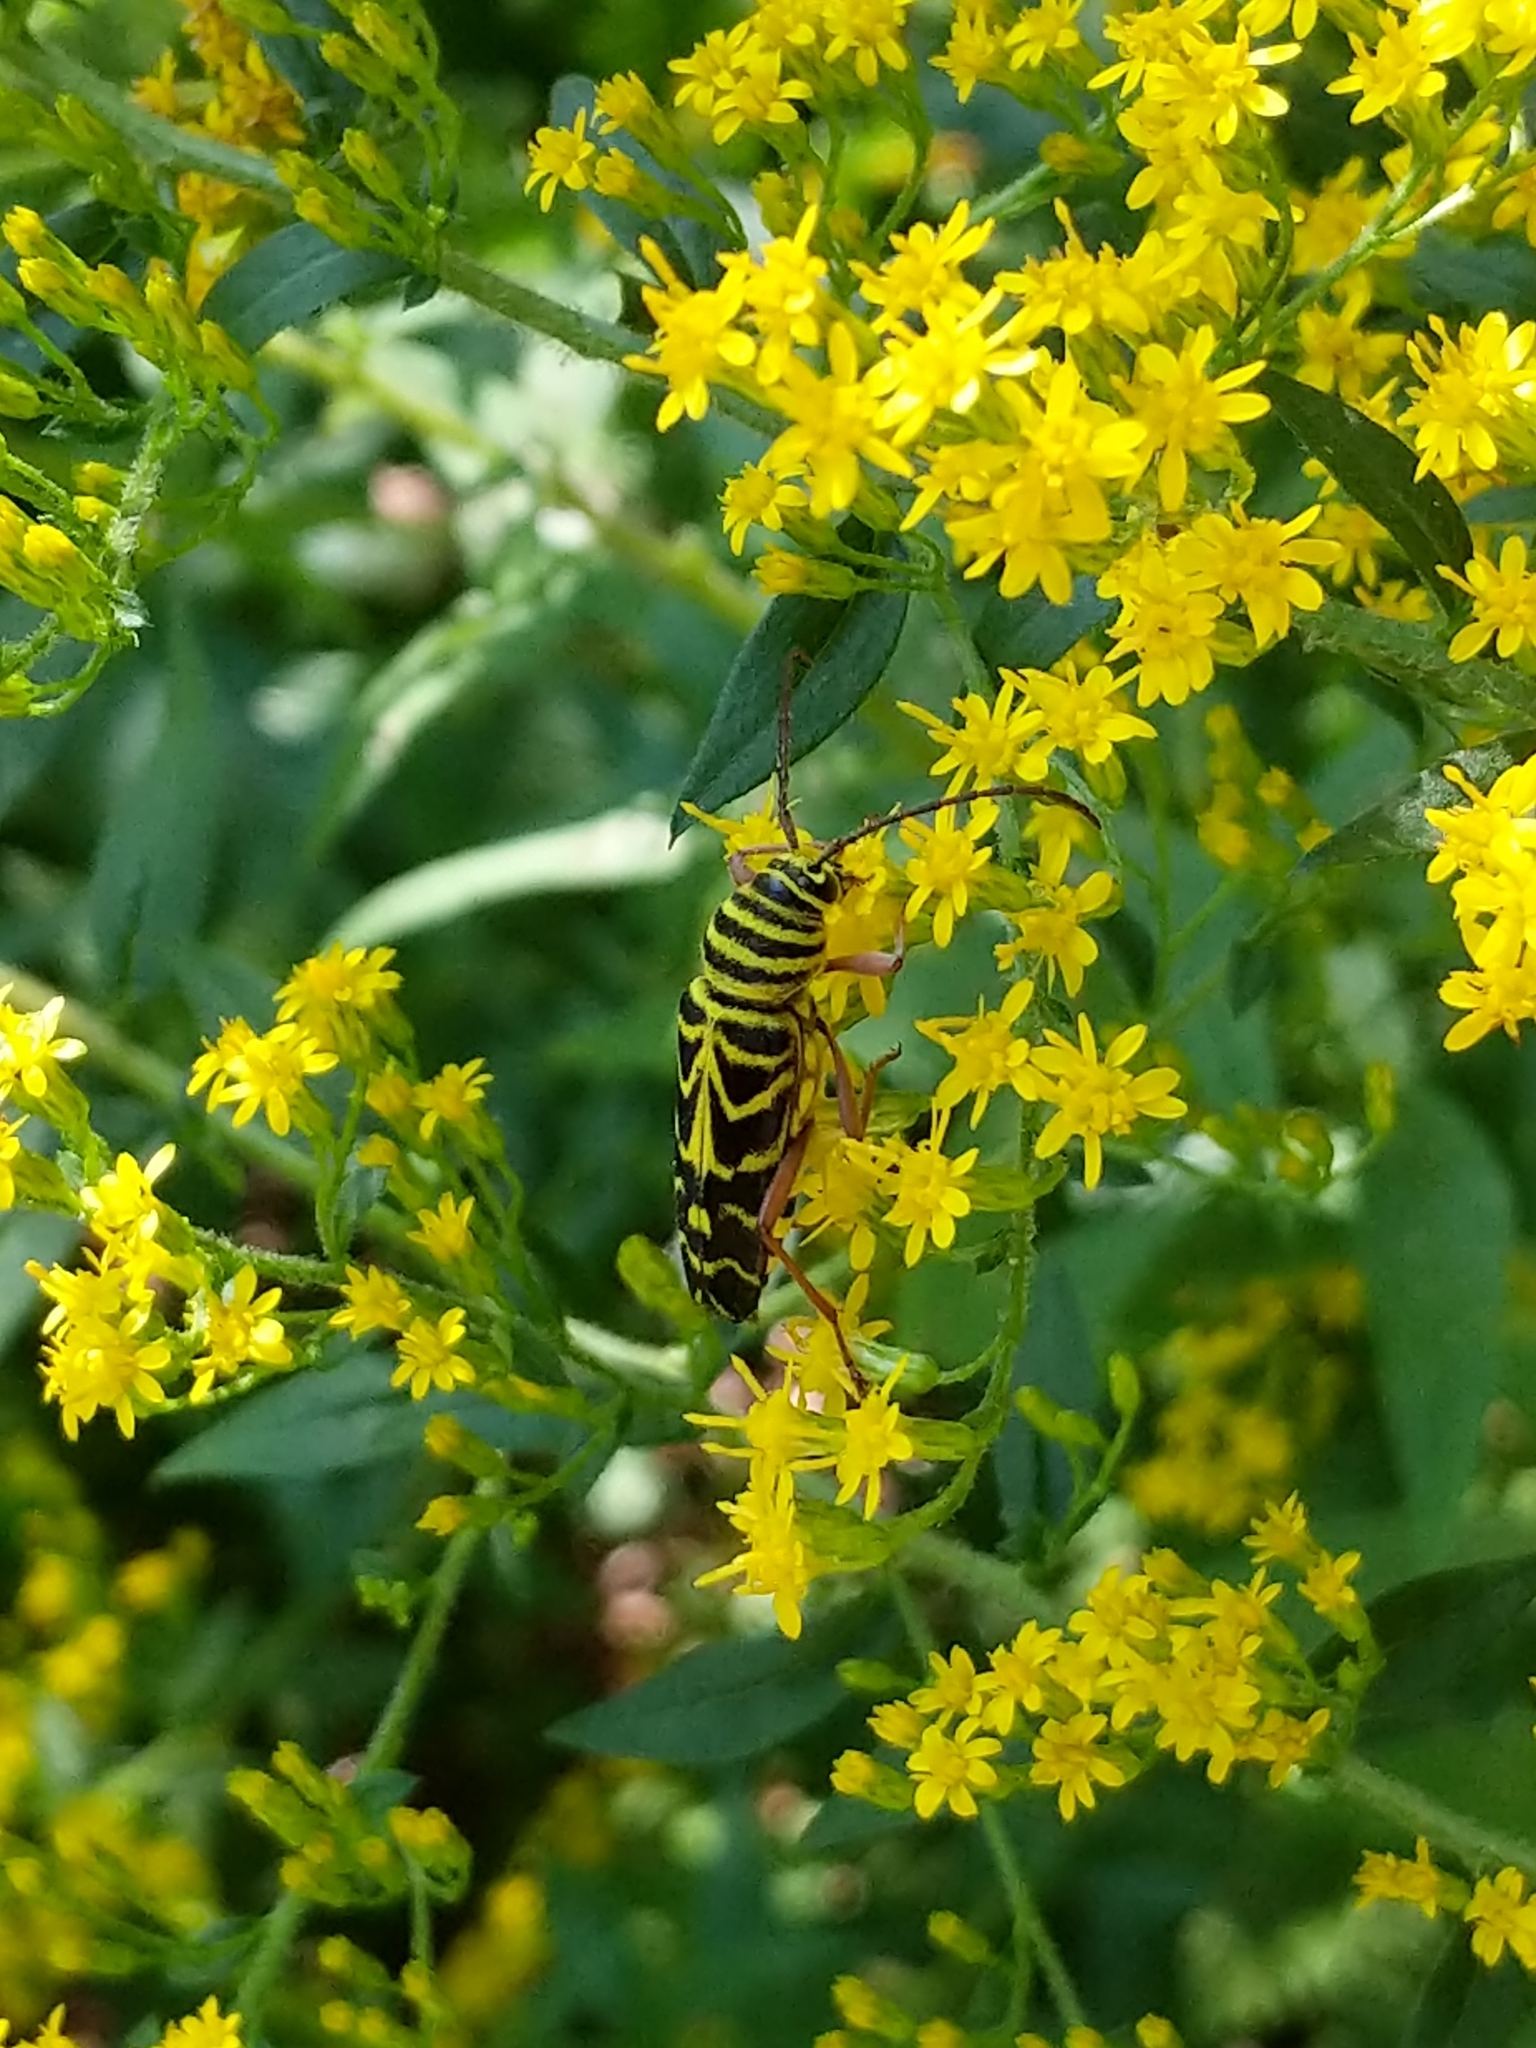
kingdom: Animalia
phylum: Arthropoda
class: Insecta
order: Coleoptera
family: Cerambycidae
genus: Megacyllene
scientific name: Megacyllene robiniae
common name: Locust borer
